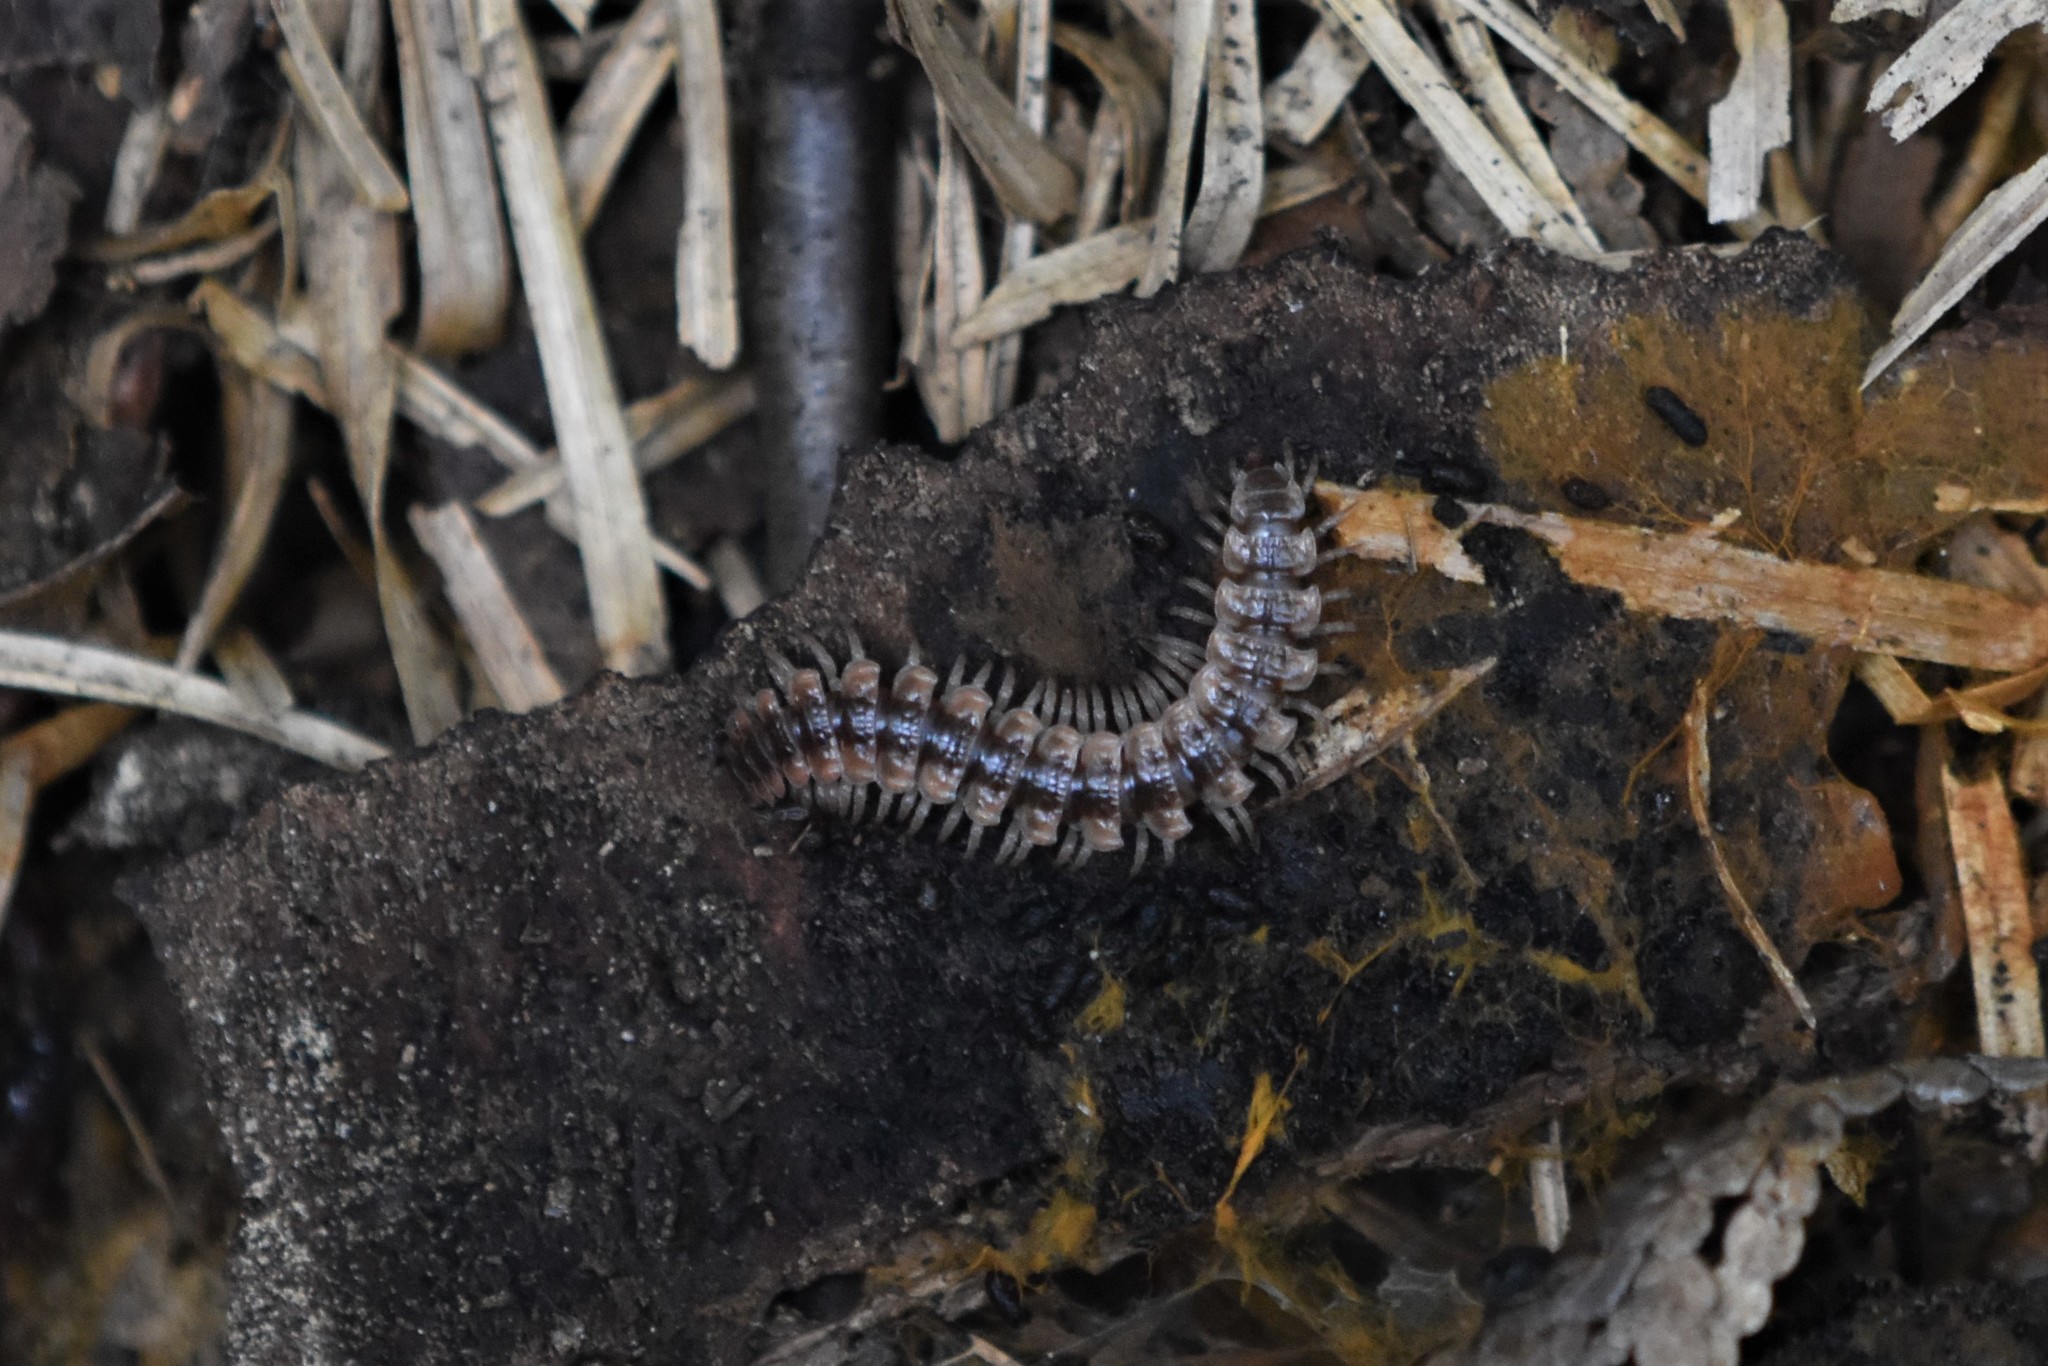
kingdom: Animalia
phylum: Arthropoda
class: Diplopoda
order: Polydesmida
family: Polydesmidae
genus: Pseudopolydesmus
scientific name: Pseudopolydesmus canadensis
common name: Canadian flat-back millipede
